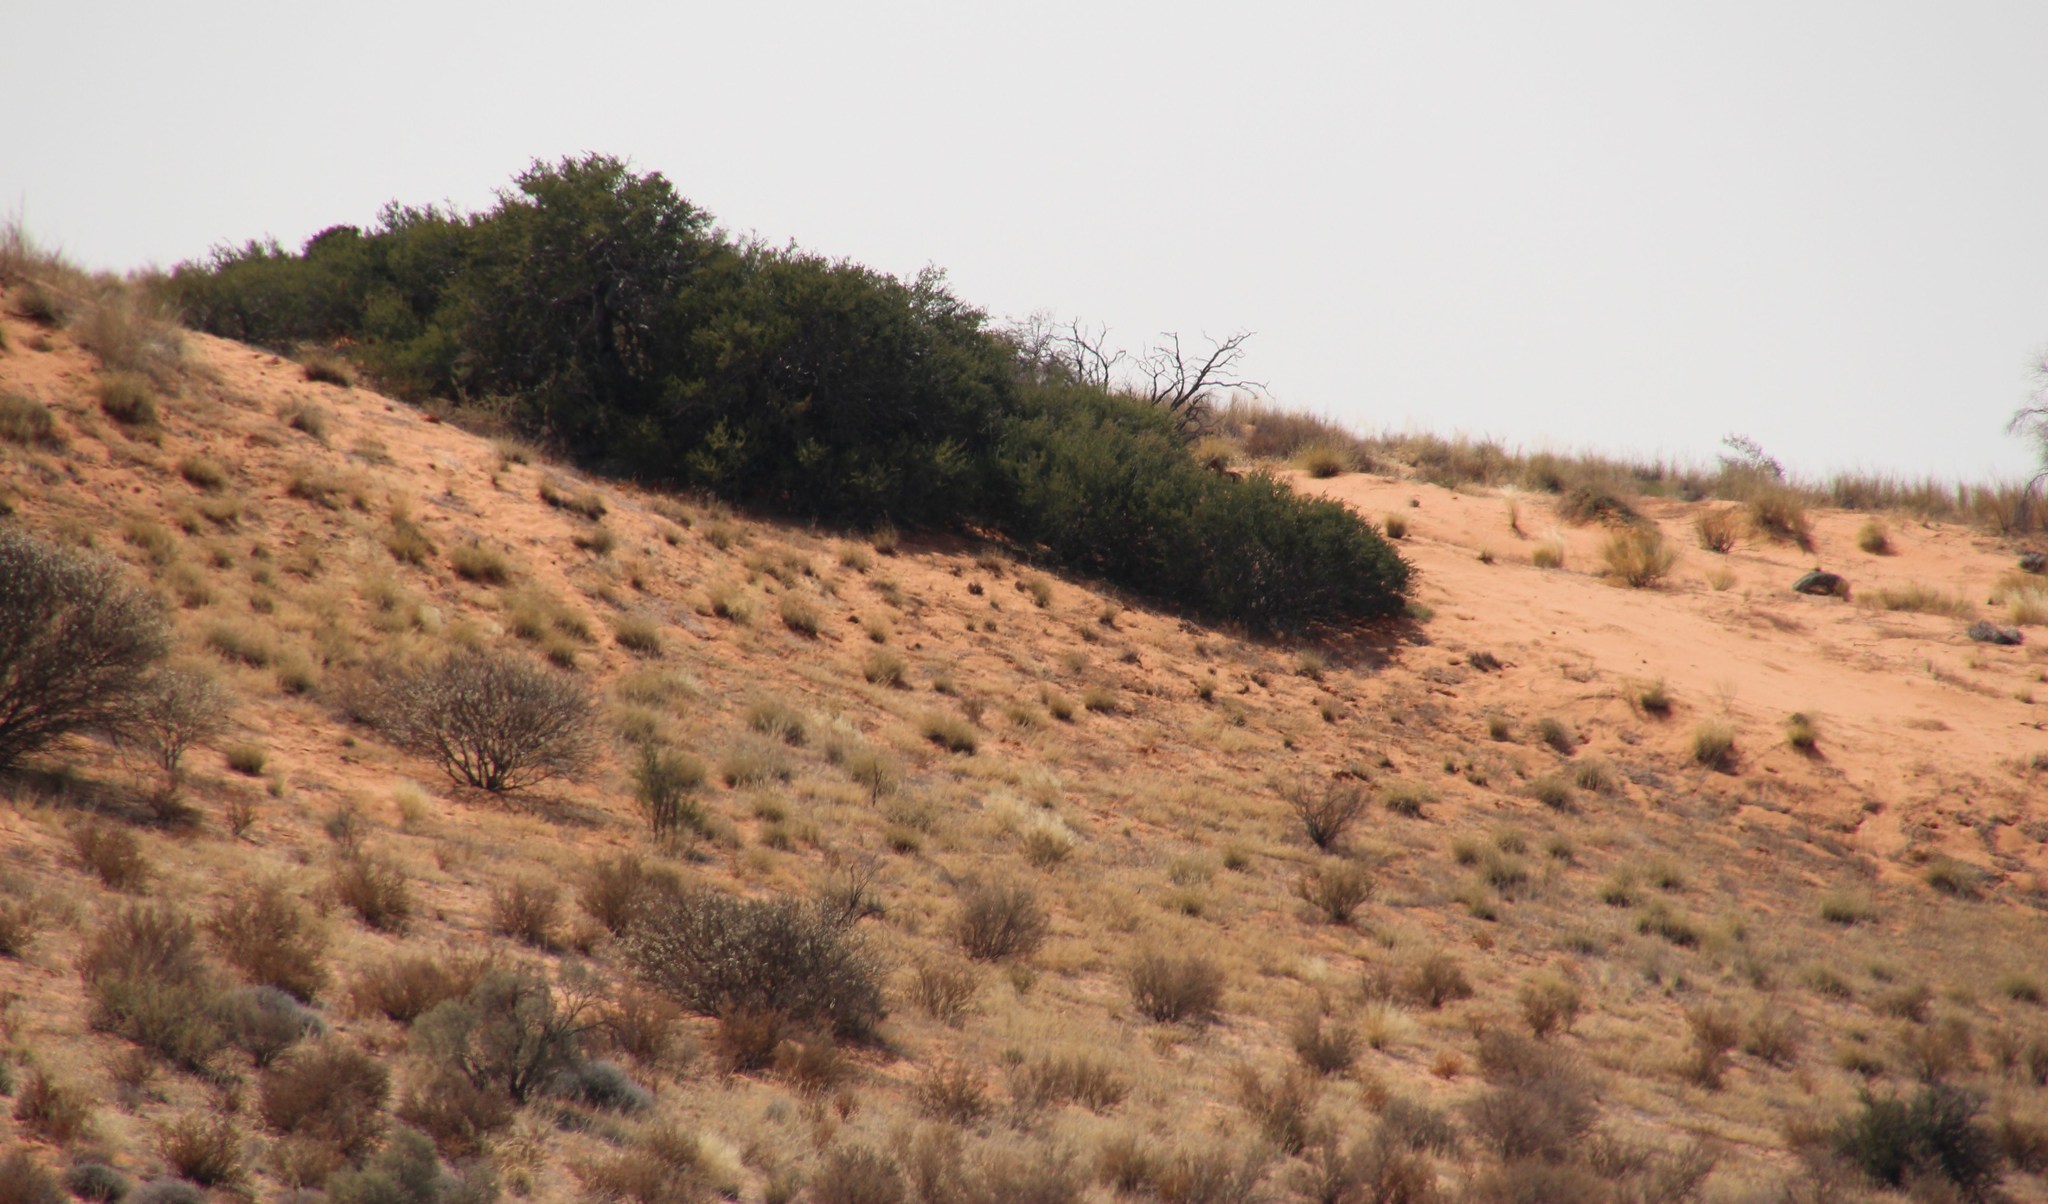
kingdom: Plantae
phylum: Tracheophyta
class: Magnoliopsida
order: Fabales
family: Fabaceae
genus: Vachellia
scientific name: Vachellia hebeclada
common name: Candle thorn
